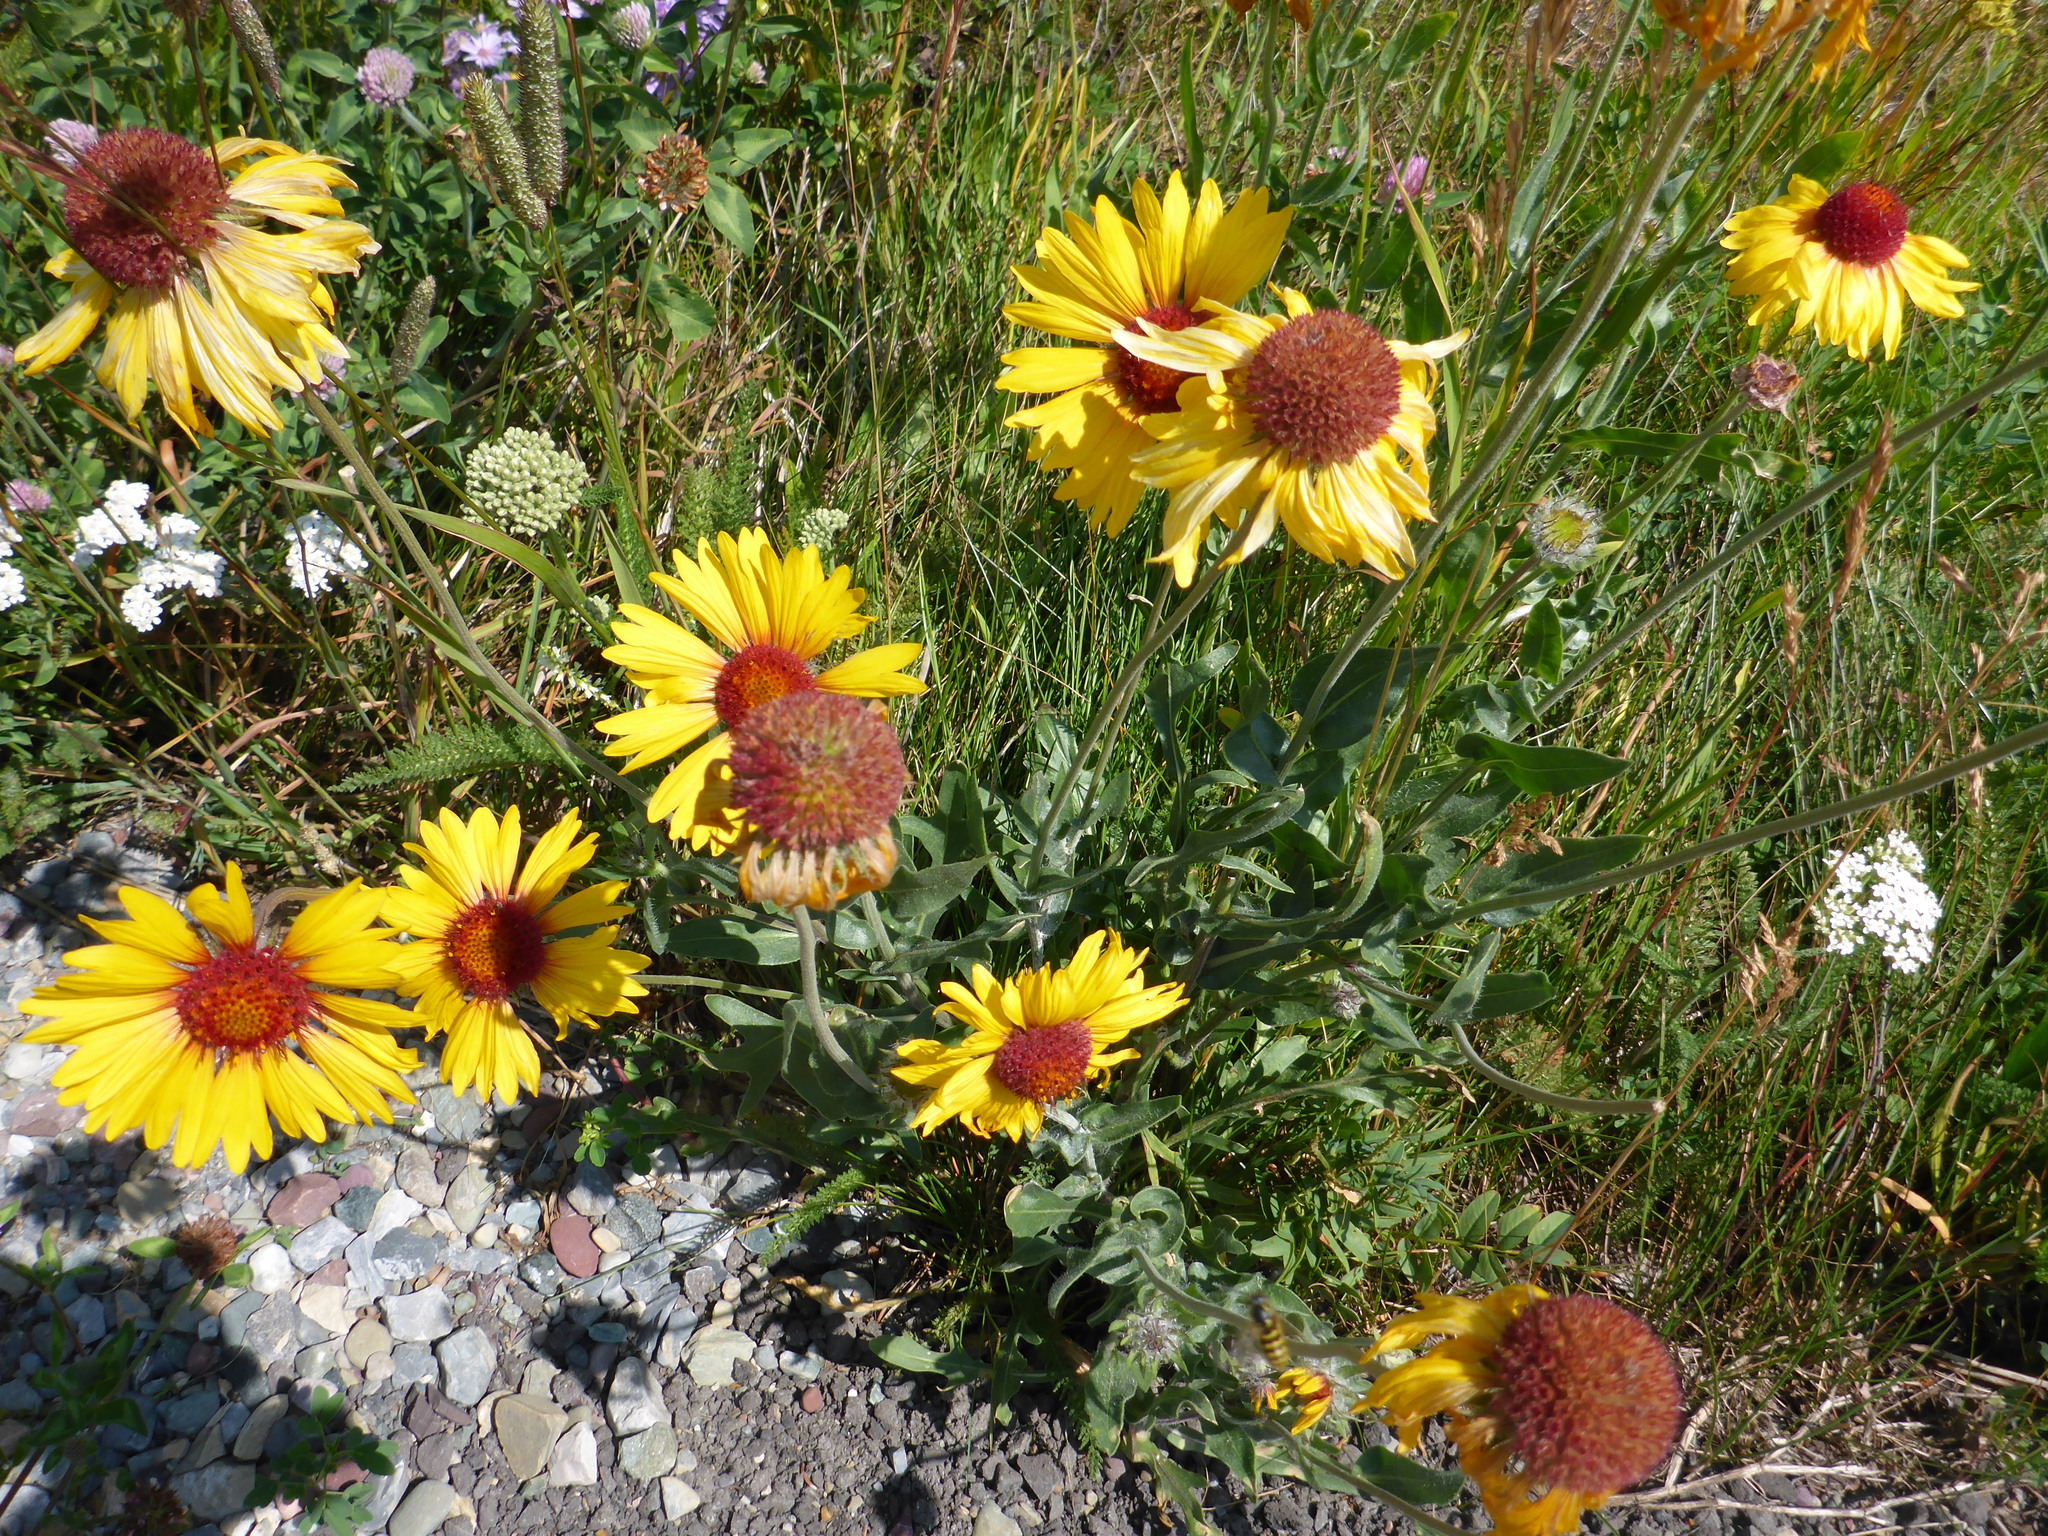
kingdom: Plantae
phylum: Tracheophyta
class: Magnoliopsida
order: Asterales
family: Asteraceae
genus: Gaillardia
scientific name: Gaillardia aristata
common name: Blanket-flower
